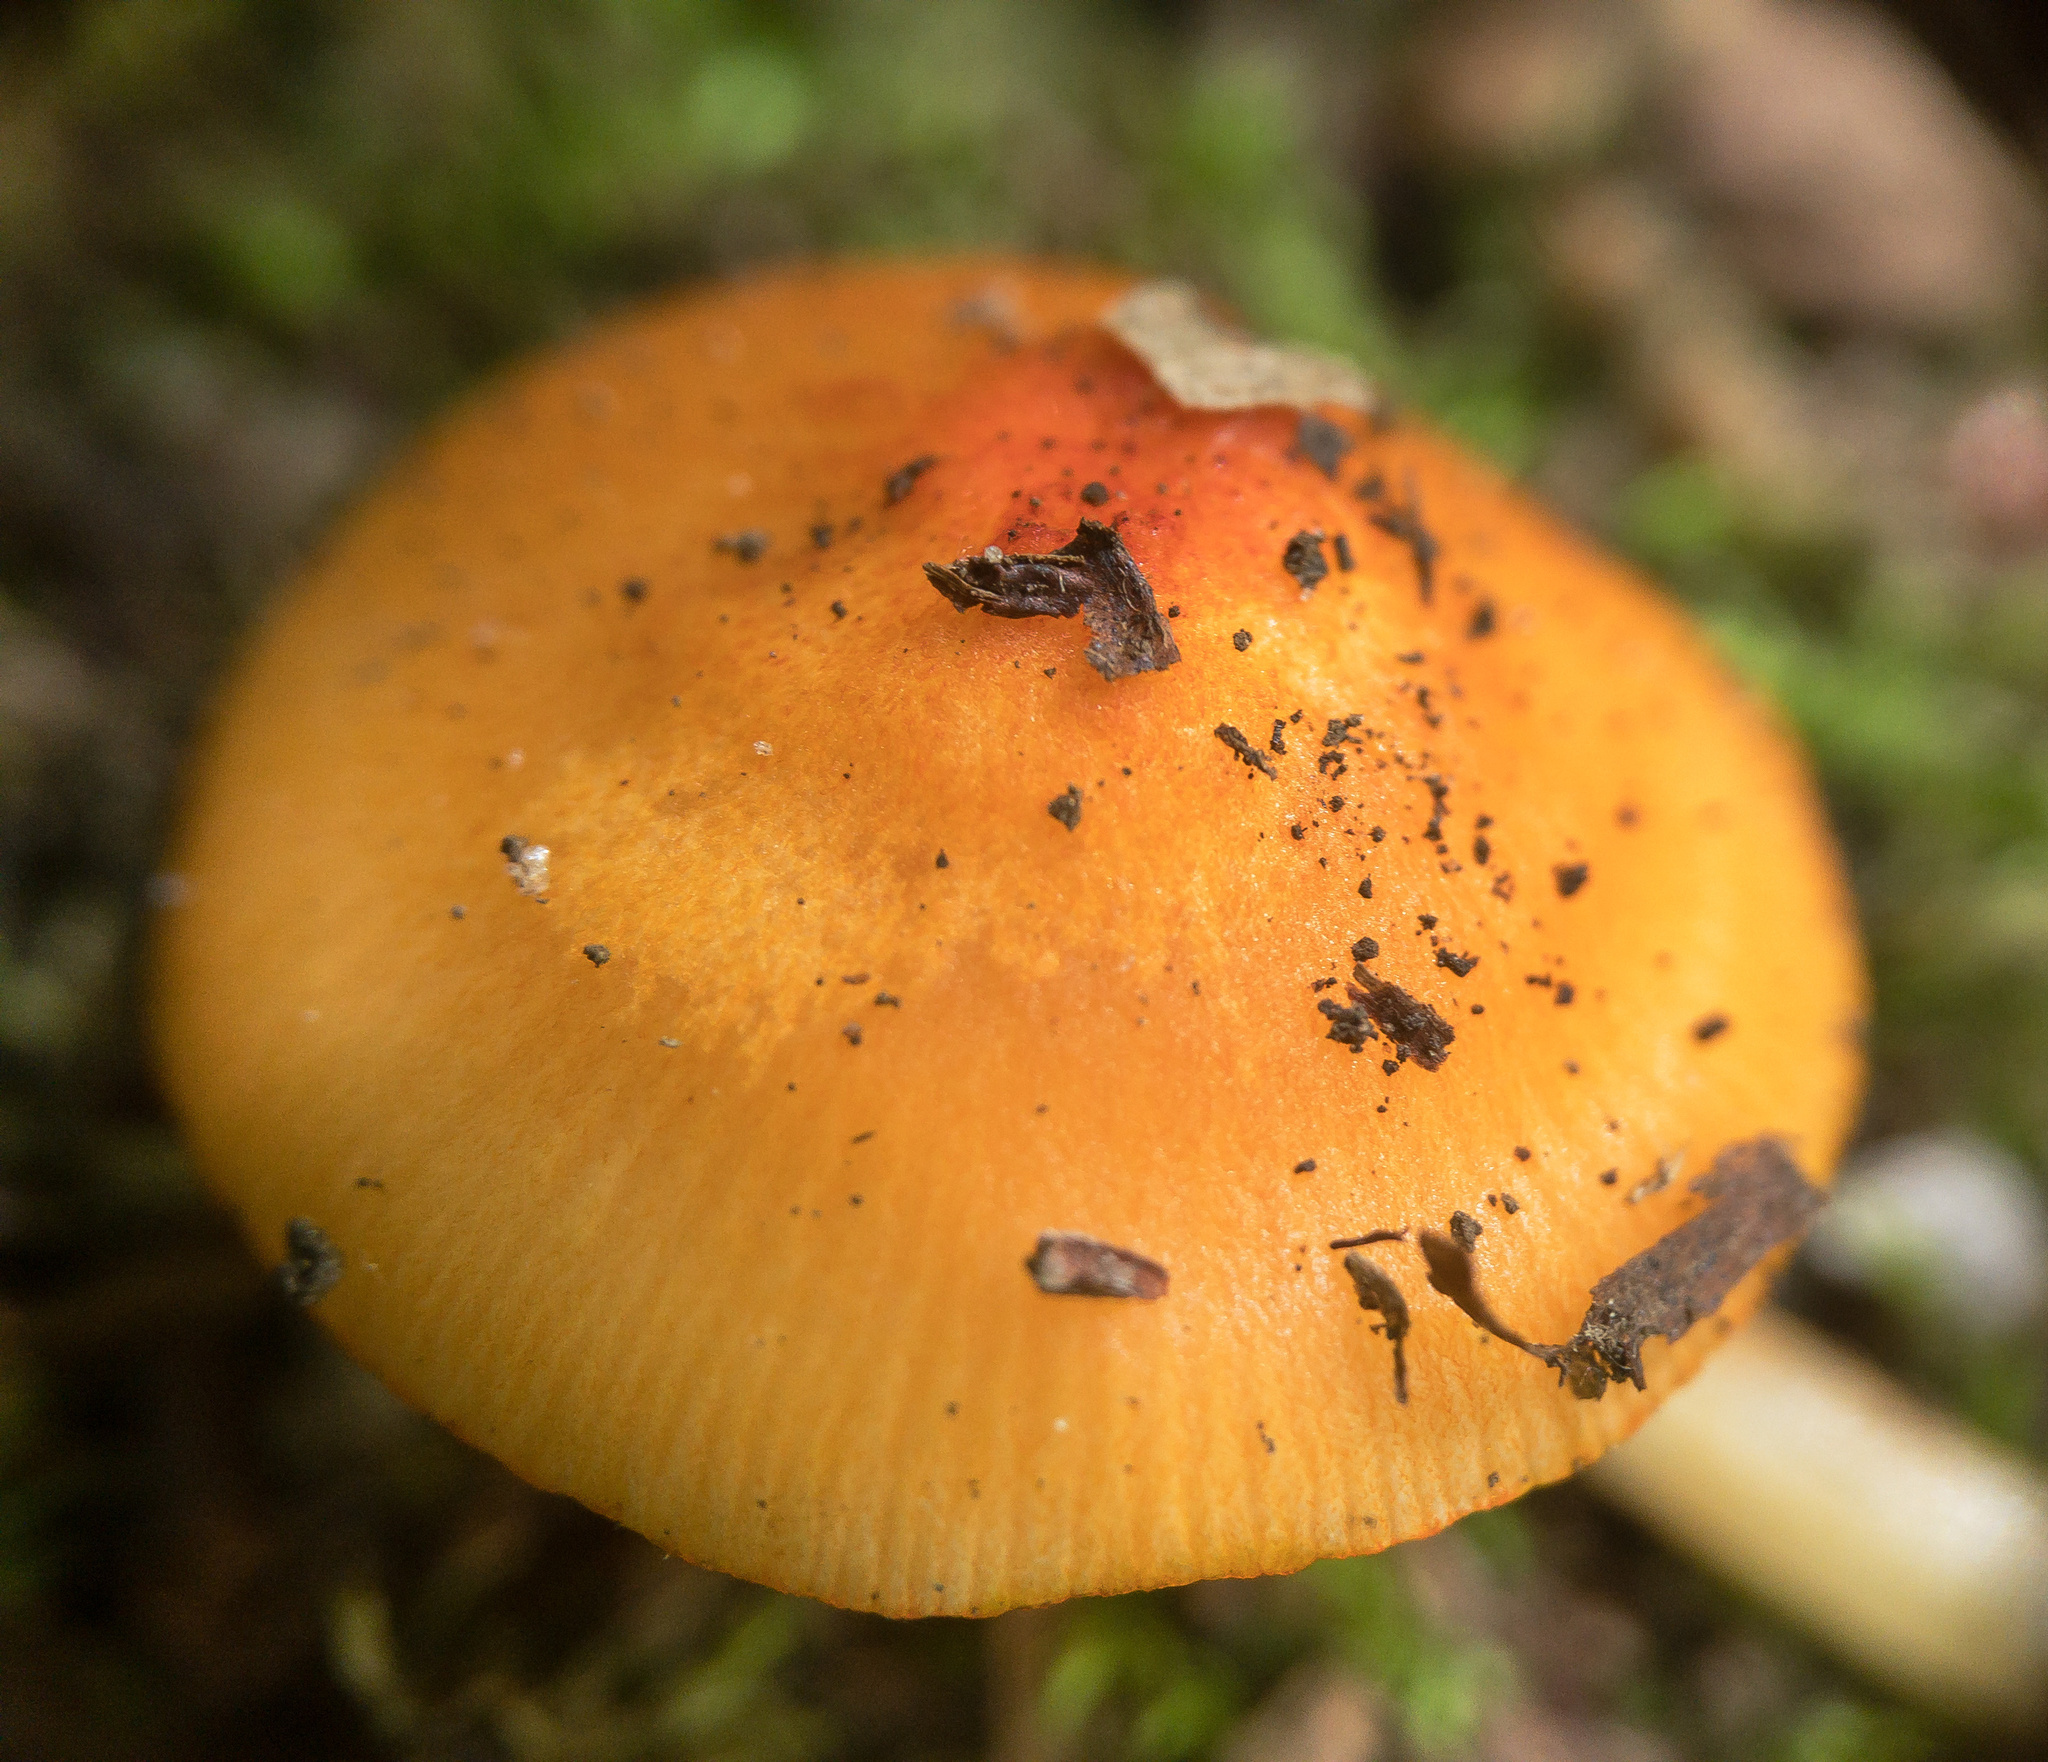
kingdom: Fungi
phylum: Basidiomycota
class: Agaricomycetes
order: Agaricales
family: Mycenaceae
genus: Mycena
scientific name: Mycena leaiana
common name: Orange mycena
